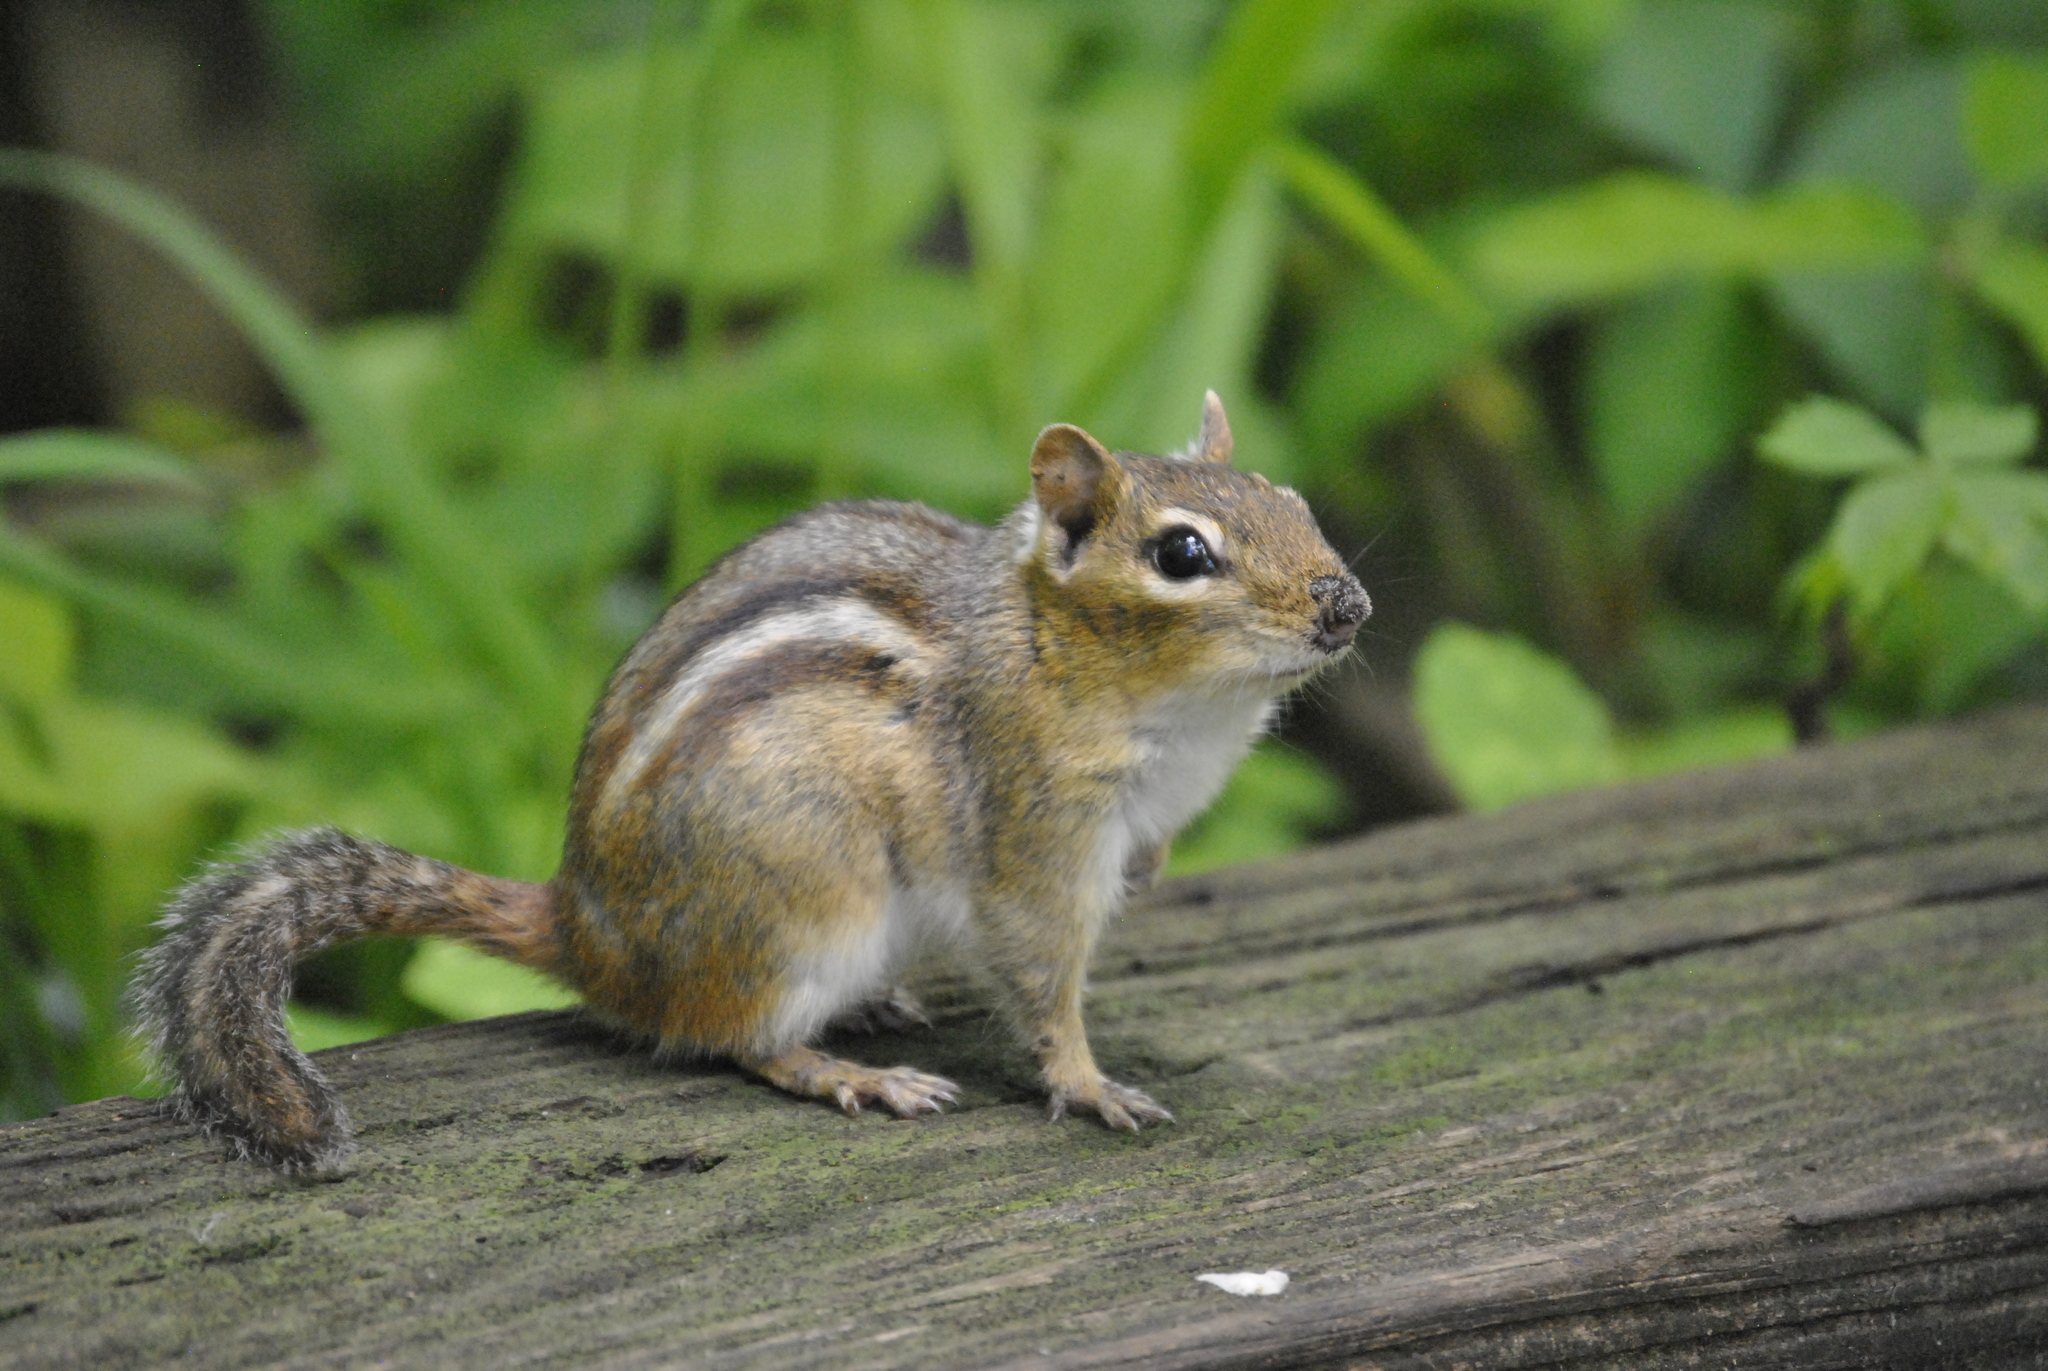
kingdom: Animalia
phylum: Chordata
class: Mammalia
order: Rodentia
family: Sciuridae
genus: Tamias
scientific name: Tamias striatus
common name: Eastern chipmunk
